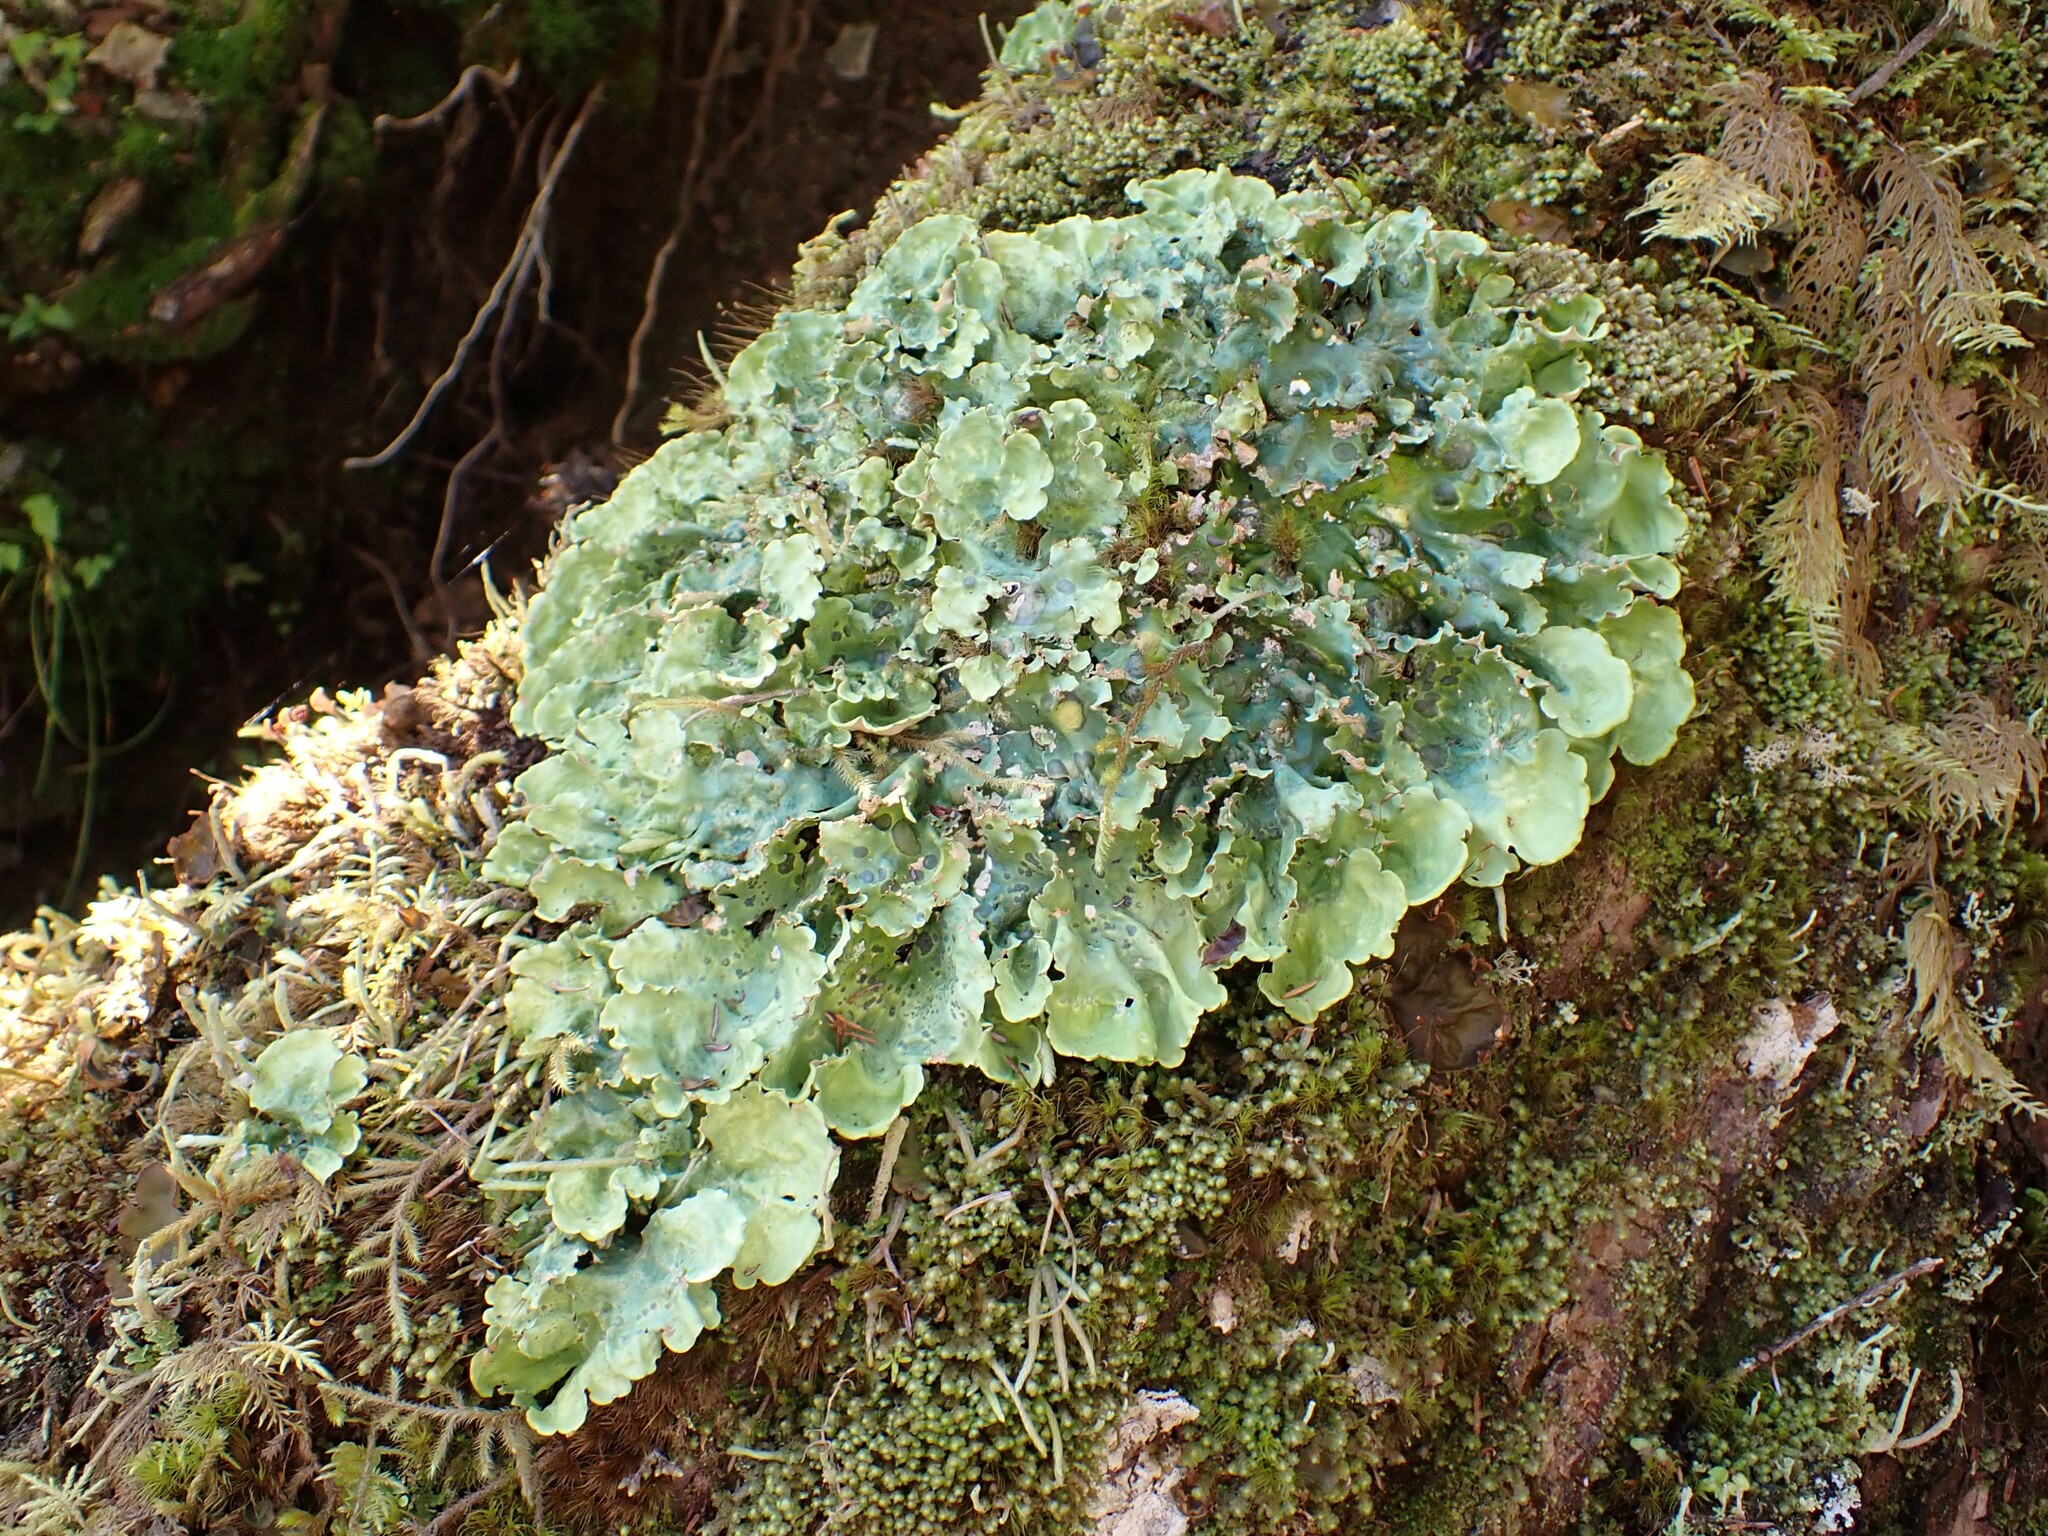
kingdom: Fungi
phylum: Ascomycota
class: Lecanoromycetes
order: Peltigerales
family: Nephromataceae
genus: Nephroma
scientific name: Nephroma arcticum
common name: Arctic kidney-lichen
